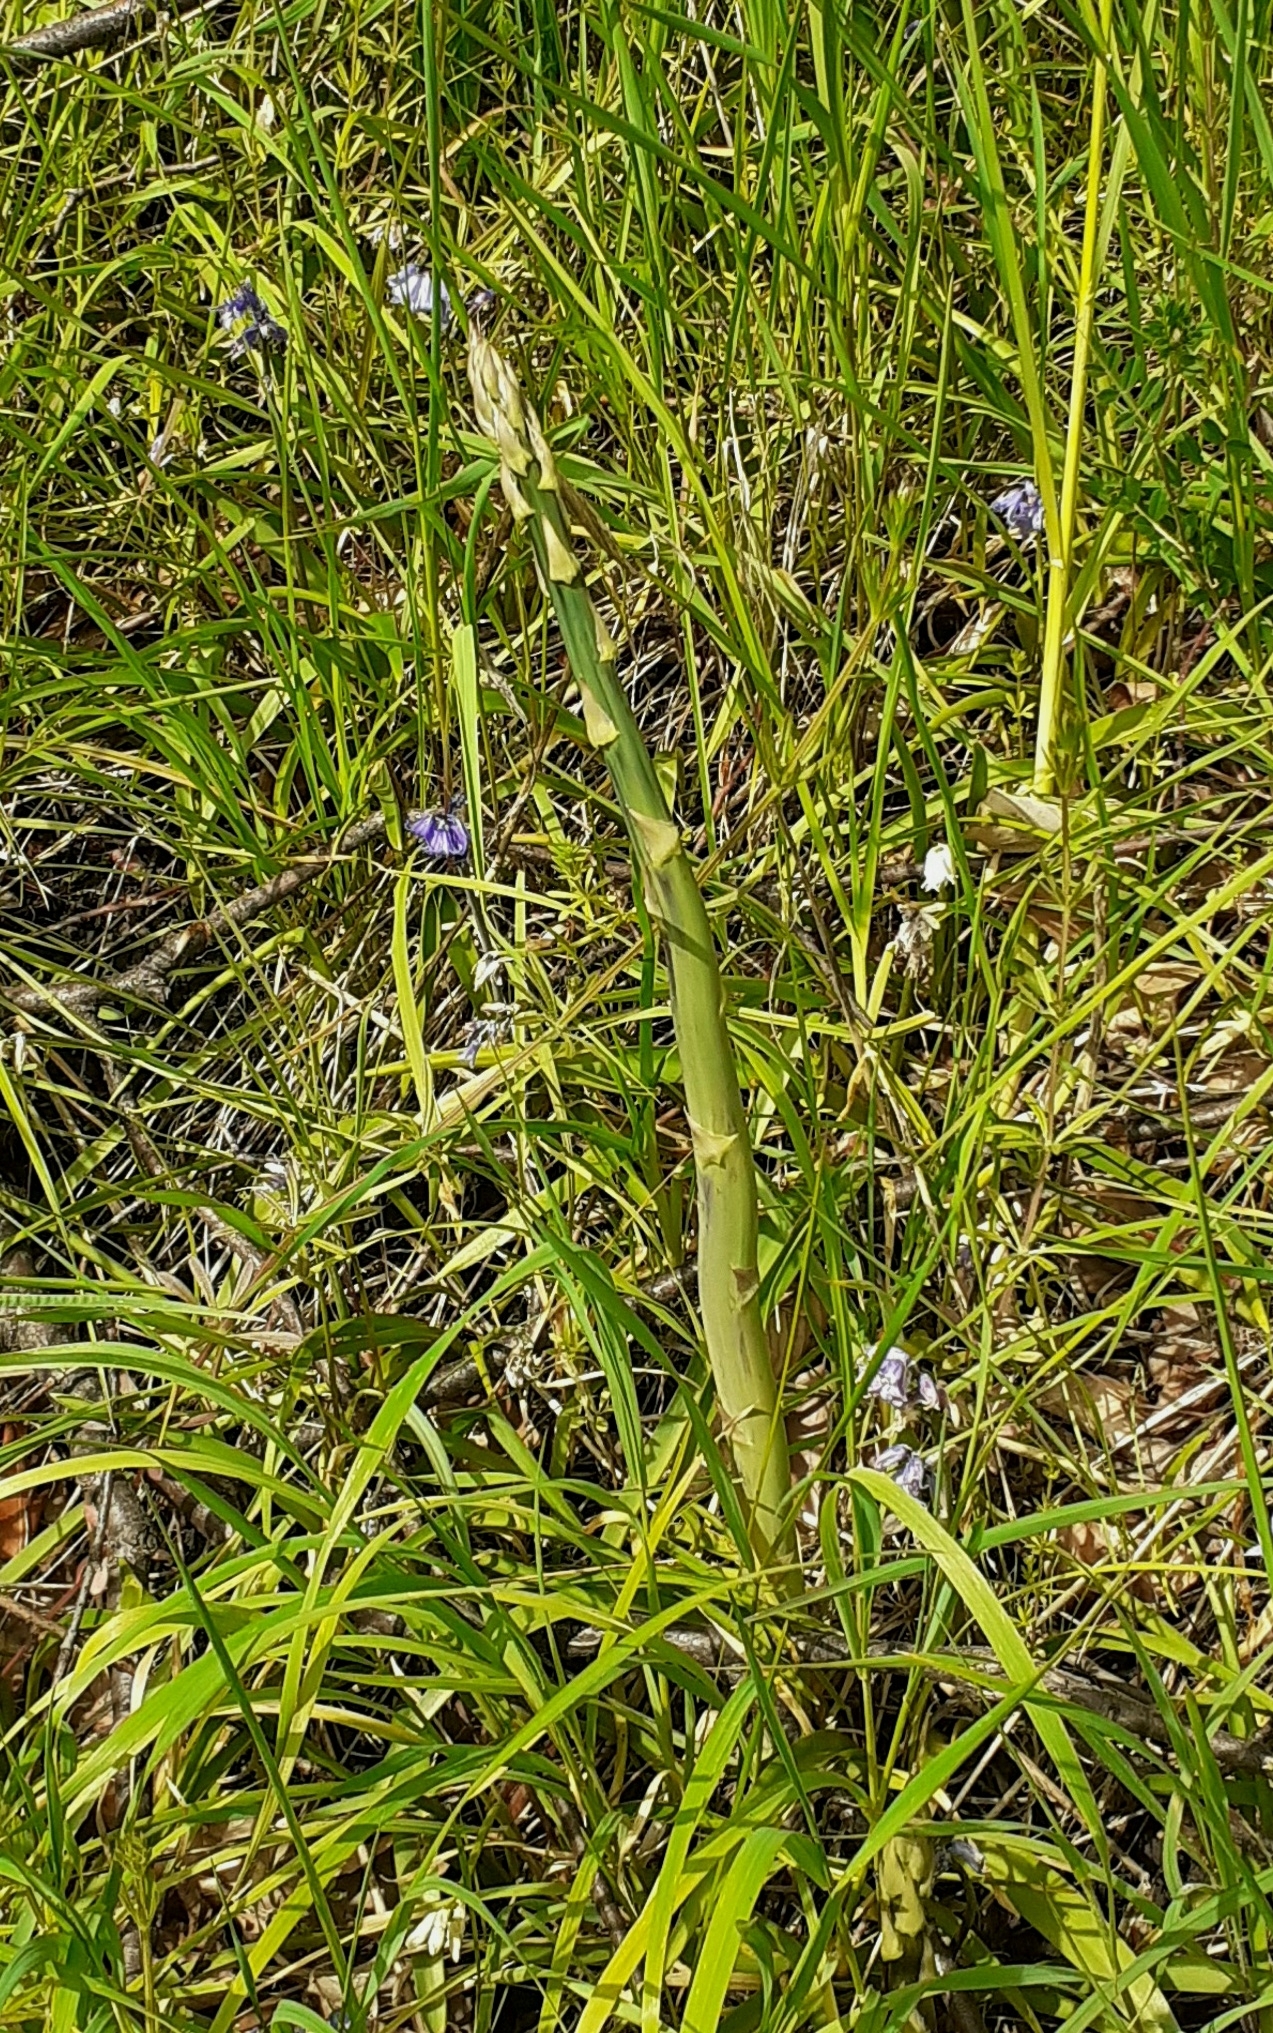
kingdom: Plantae
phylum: Tracheophyta
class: Liliopsida
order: Asparagales
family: Asparagaceae
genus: Asparagus
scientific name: Asparagus officinalis
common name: Garden asparagus
